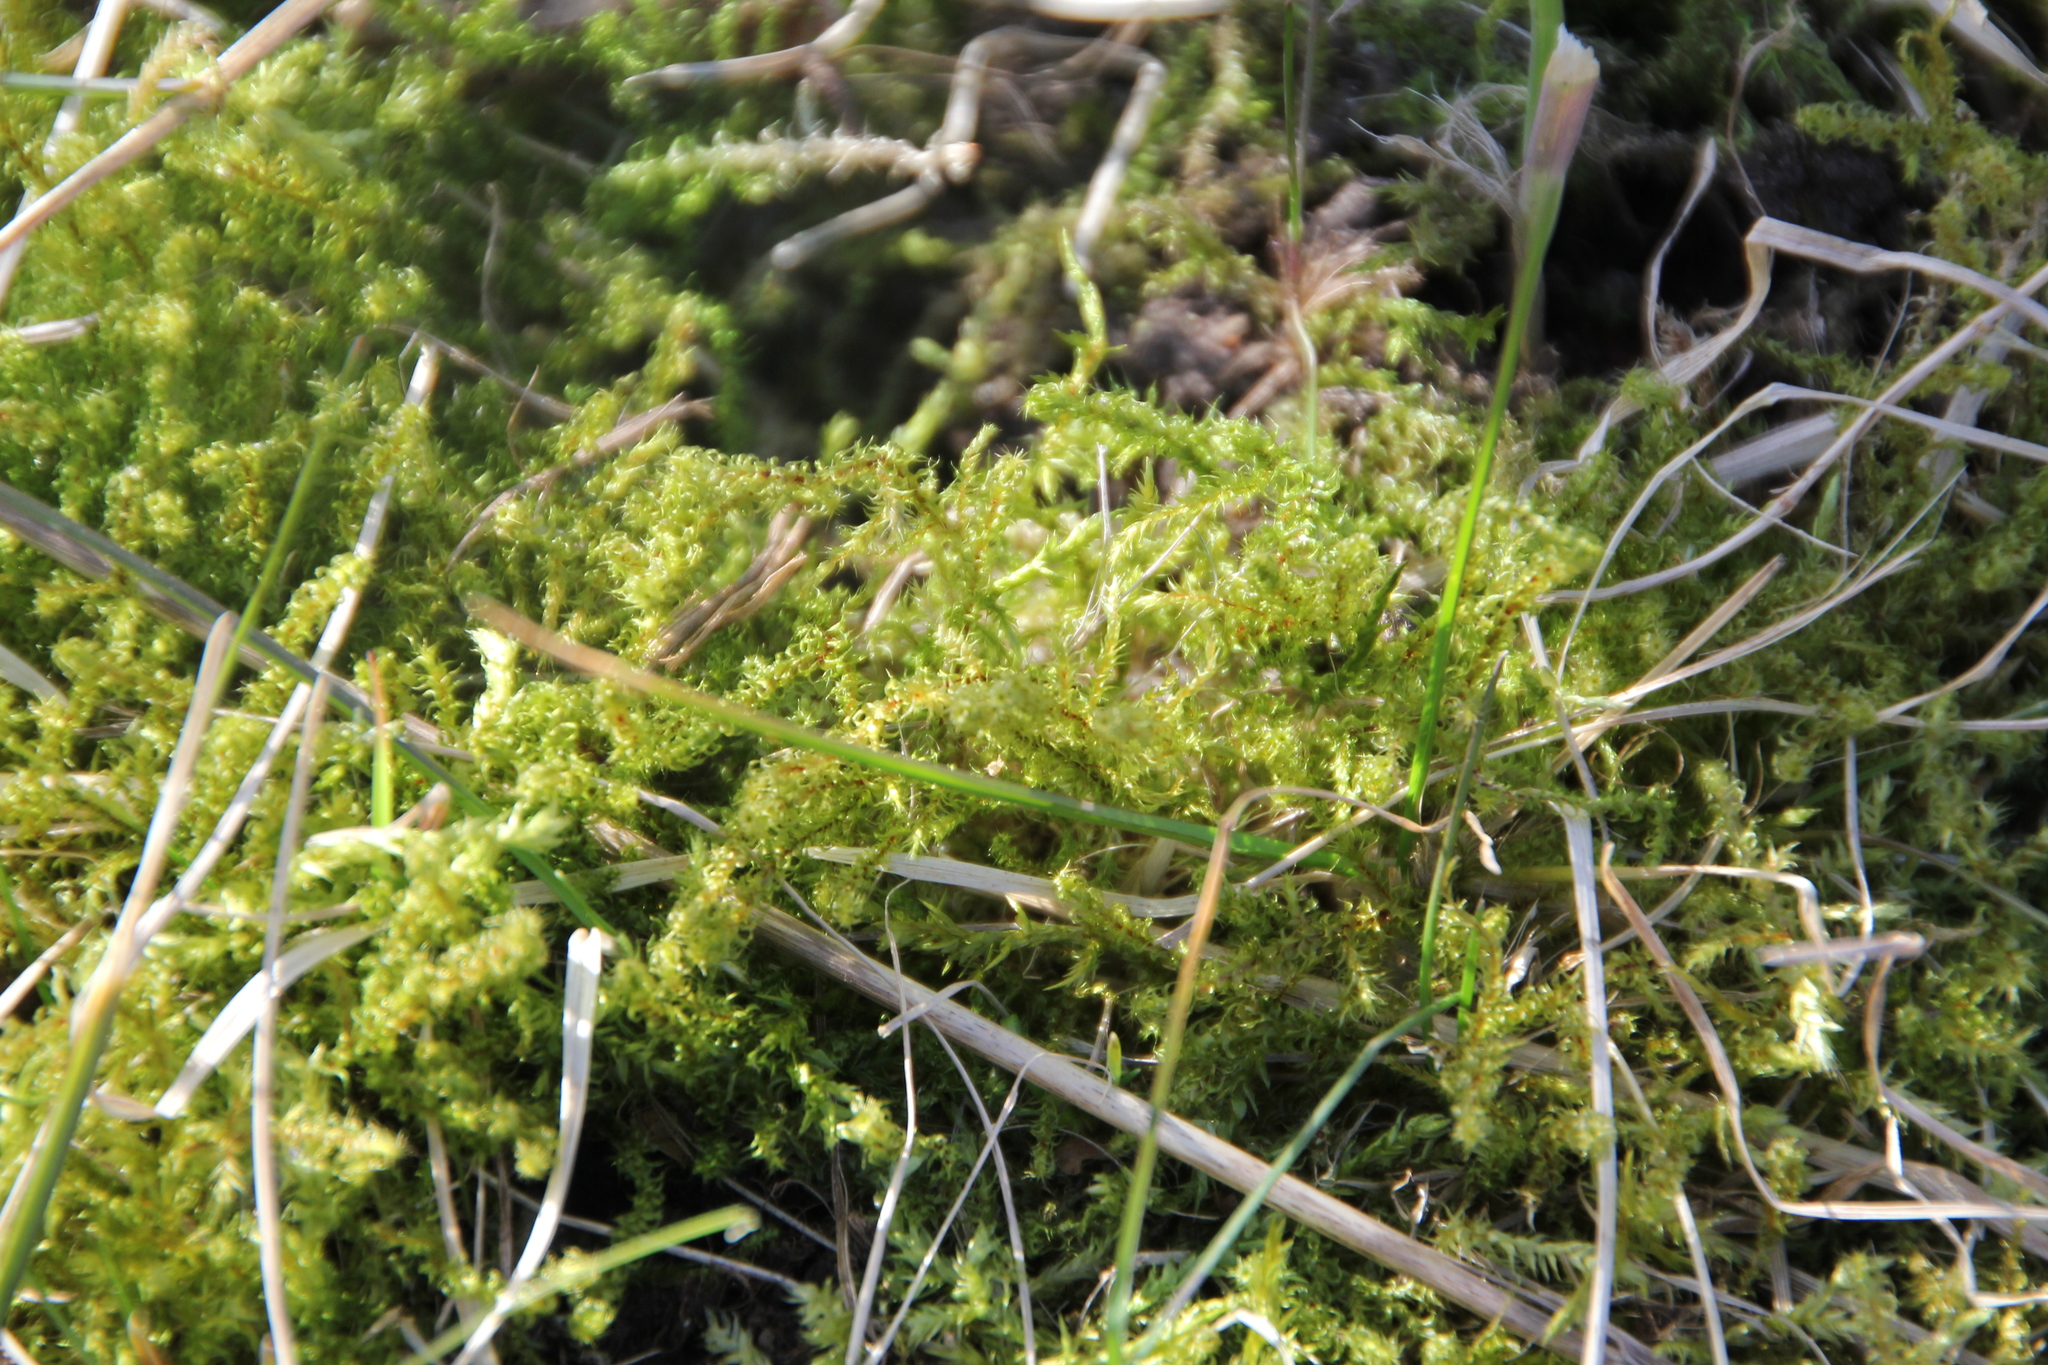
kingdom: Plantae
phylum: Bryophyta
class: Bryopsida
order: Hypnales
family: Hylocomiaceae
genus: Rhytidiadelphus
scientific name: Rhytidiadelphus squarrosus
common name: Springy turf-moss
